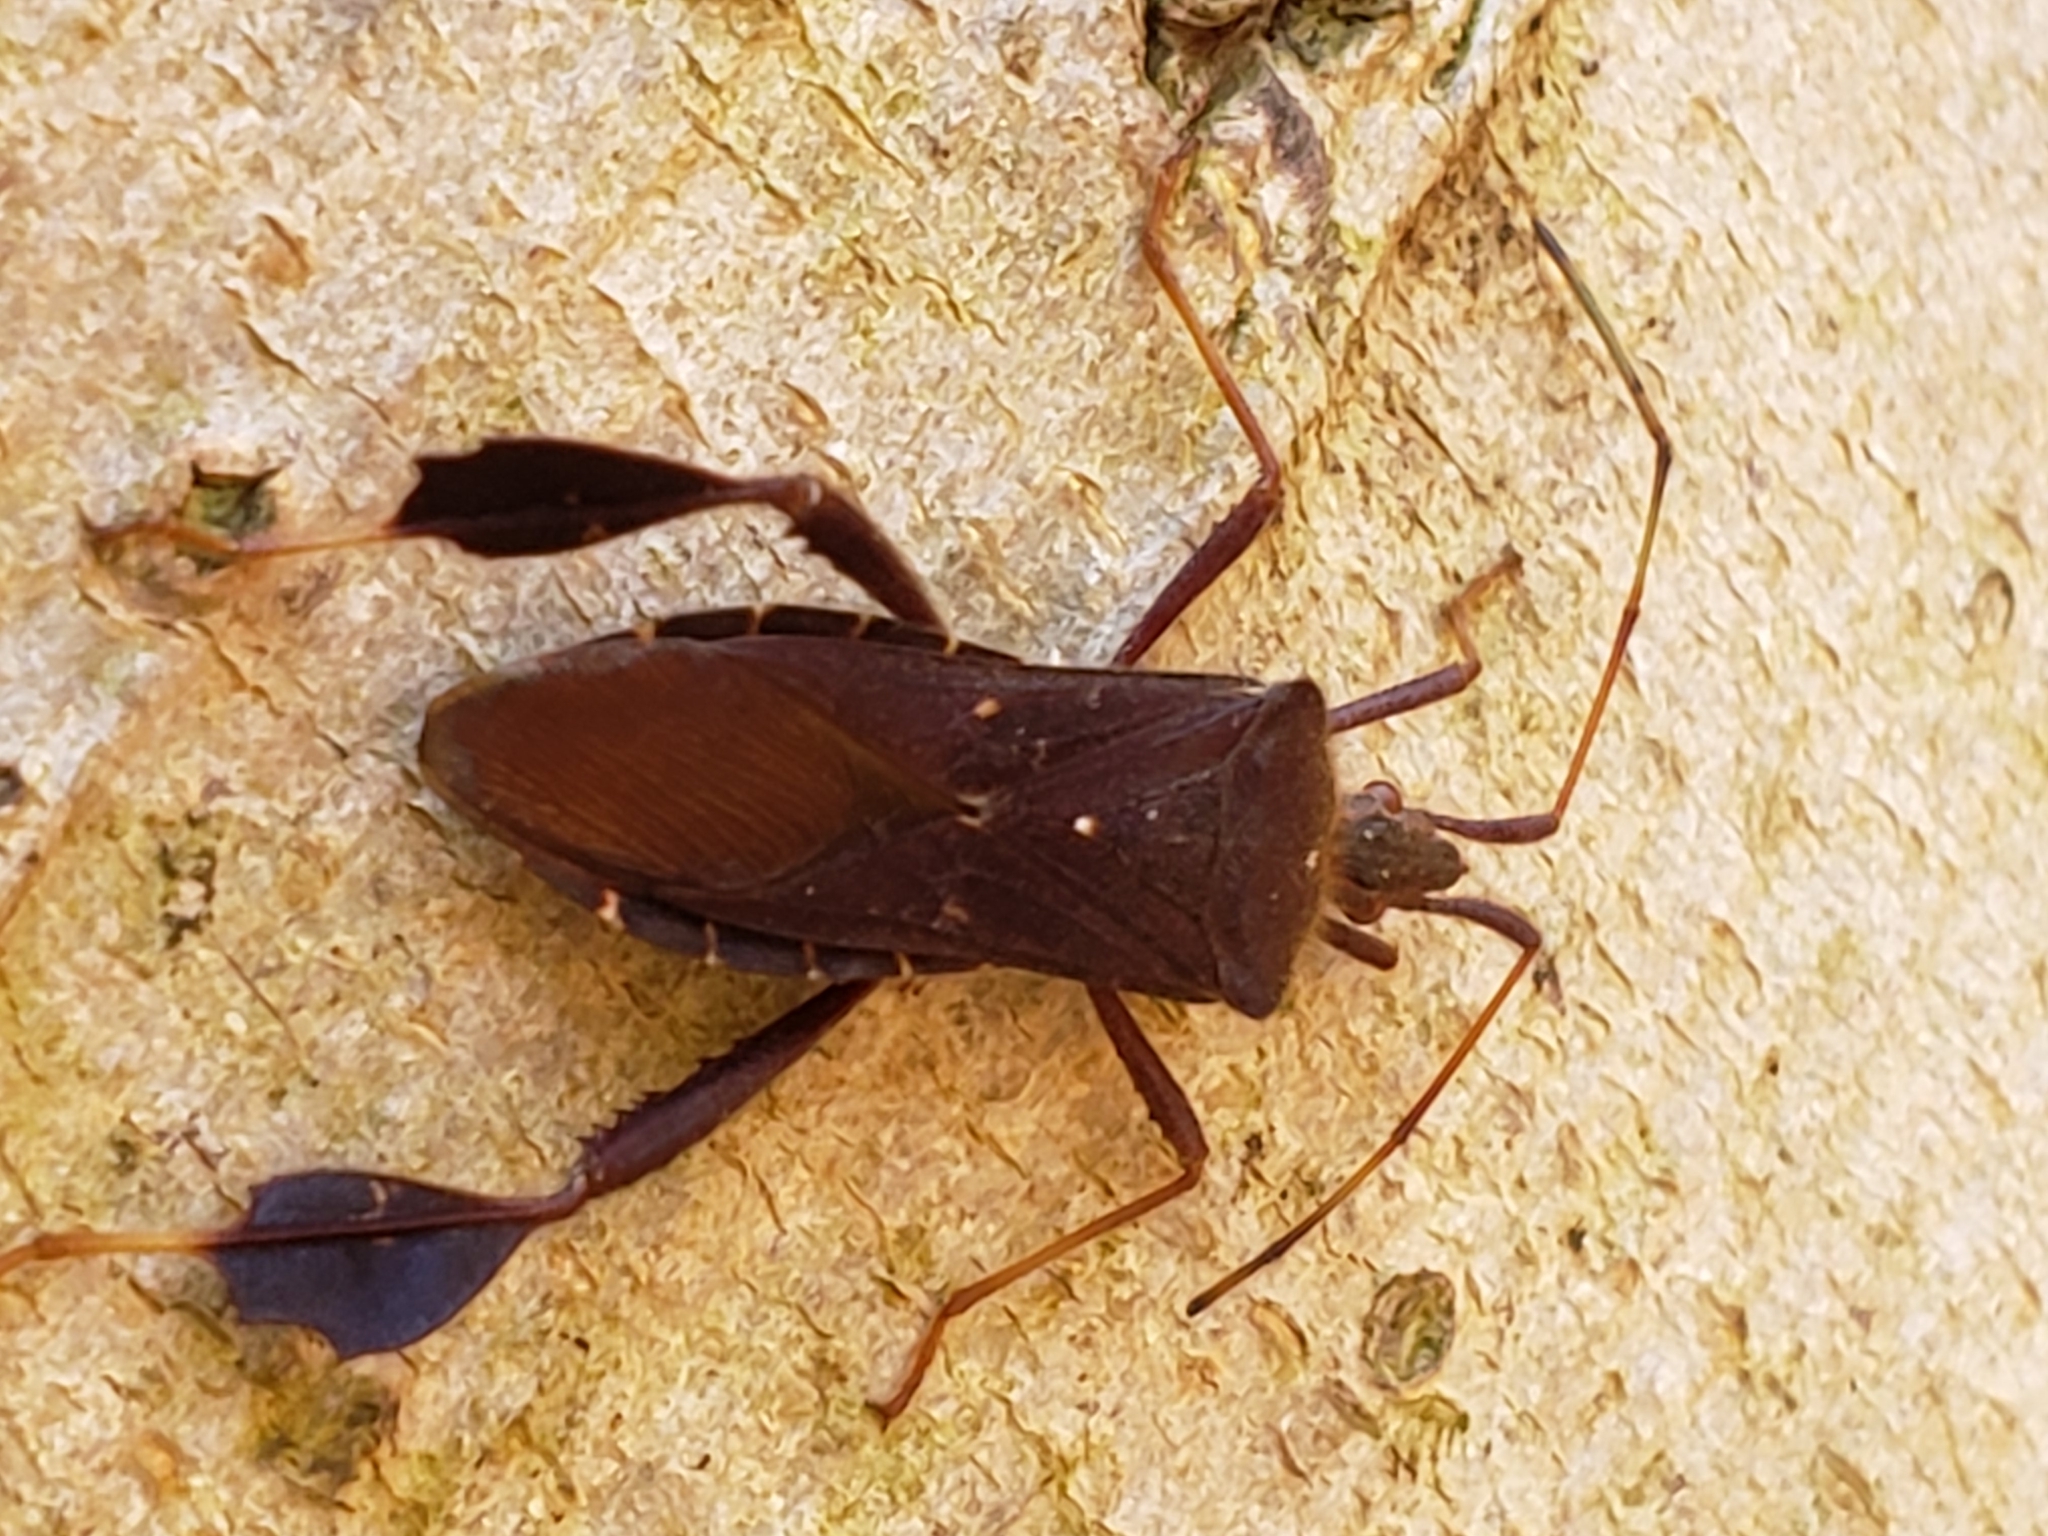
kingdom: Animalia
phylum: Arthropoda
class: Insecta
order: Hemiptera
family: Coreidae
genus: Leptoglossus
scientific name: Leptoglossus oppositus
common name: Northern leaf-footed bug
